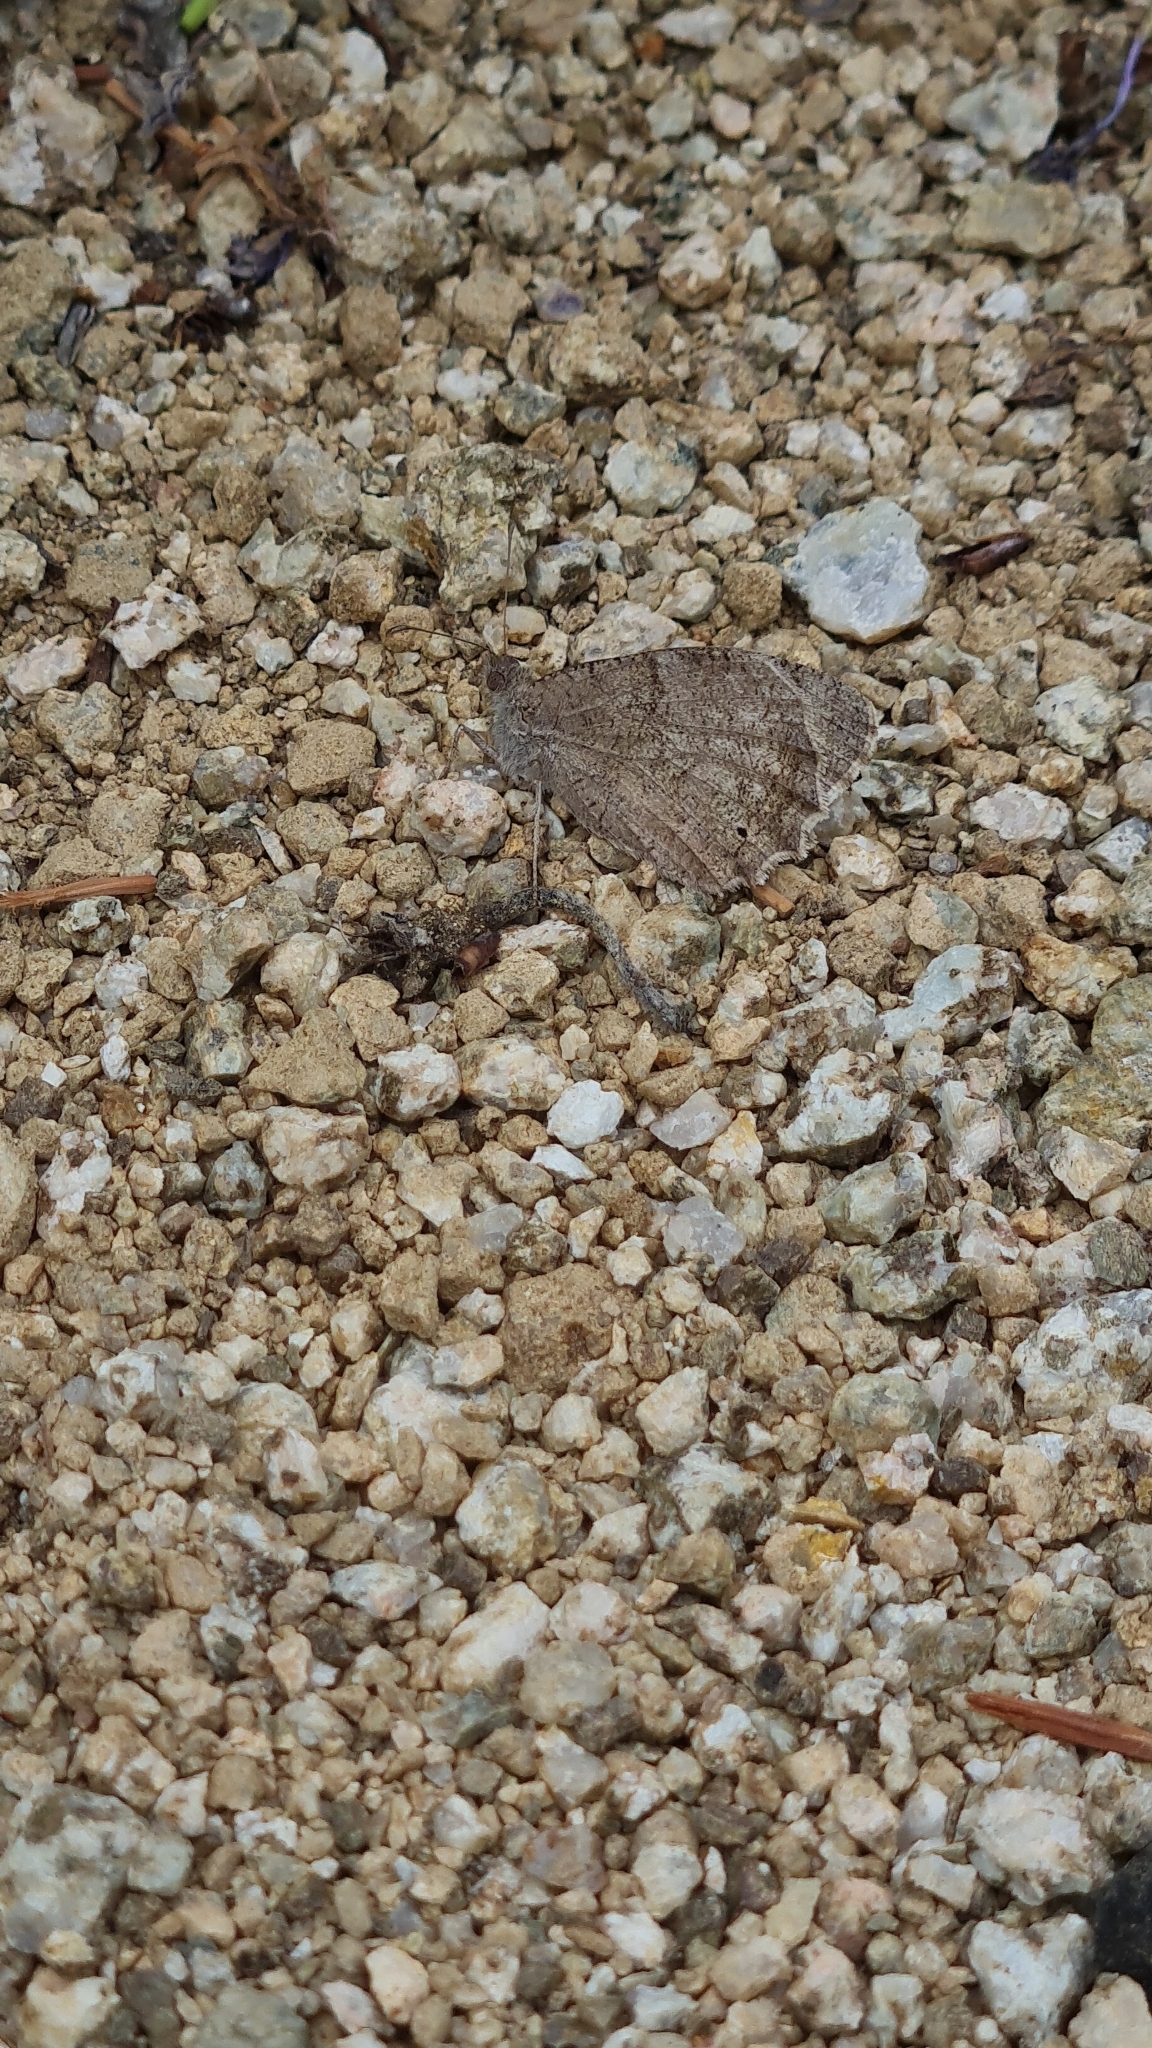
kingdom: Animalia
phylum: Arthropoda
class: Insecta
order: Lepidoptera
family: Nymphalidae
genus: Hipparchia
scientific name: Hipparchia statilinus
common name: Tree grayling
